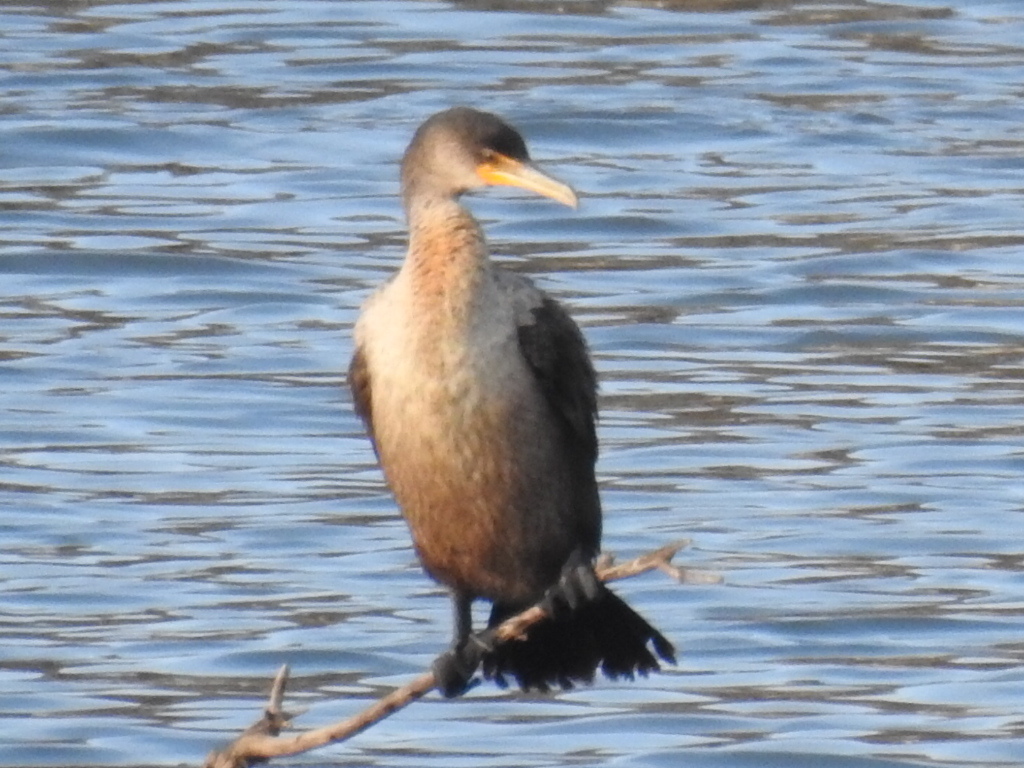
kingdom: Animalia
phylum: Chordata
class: Aves
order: Suliformes
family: Phalacrocoracidae
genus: Phalacrocorax
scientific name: Phalacrocorax auritus
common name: Double-crested cormorant
